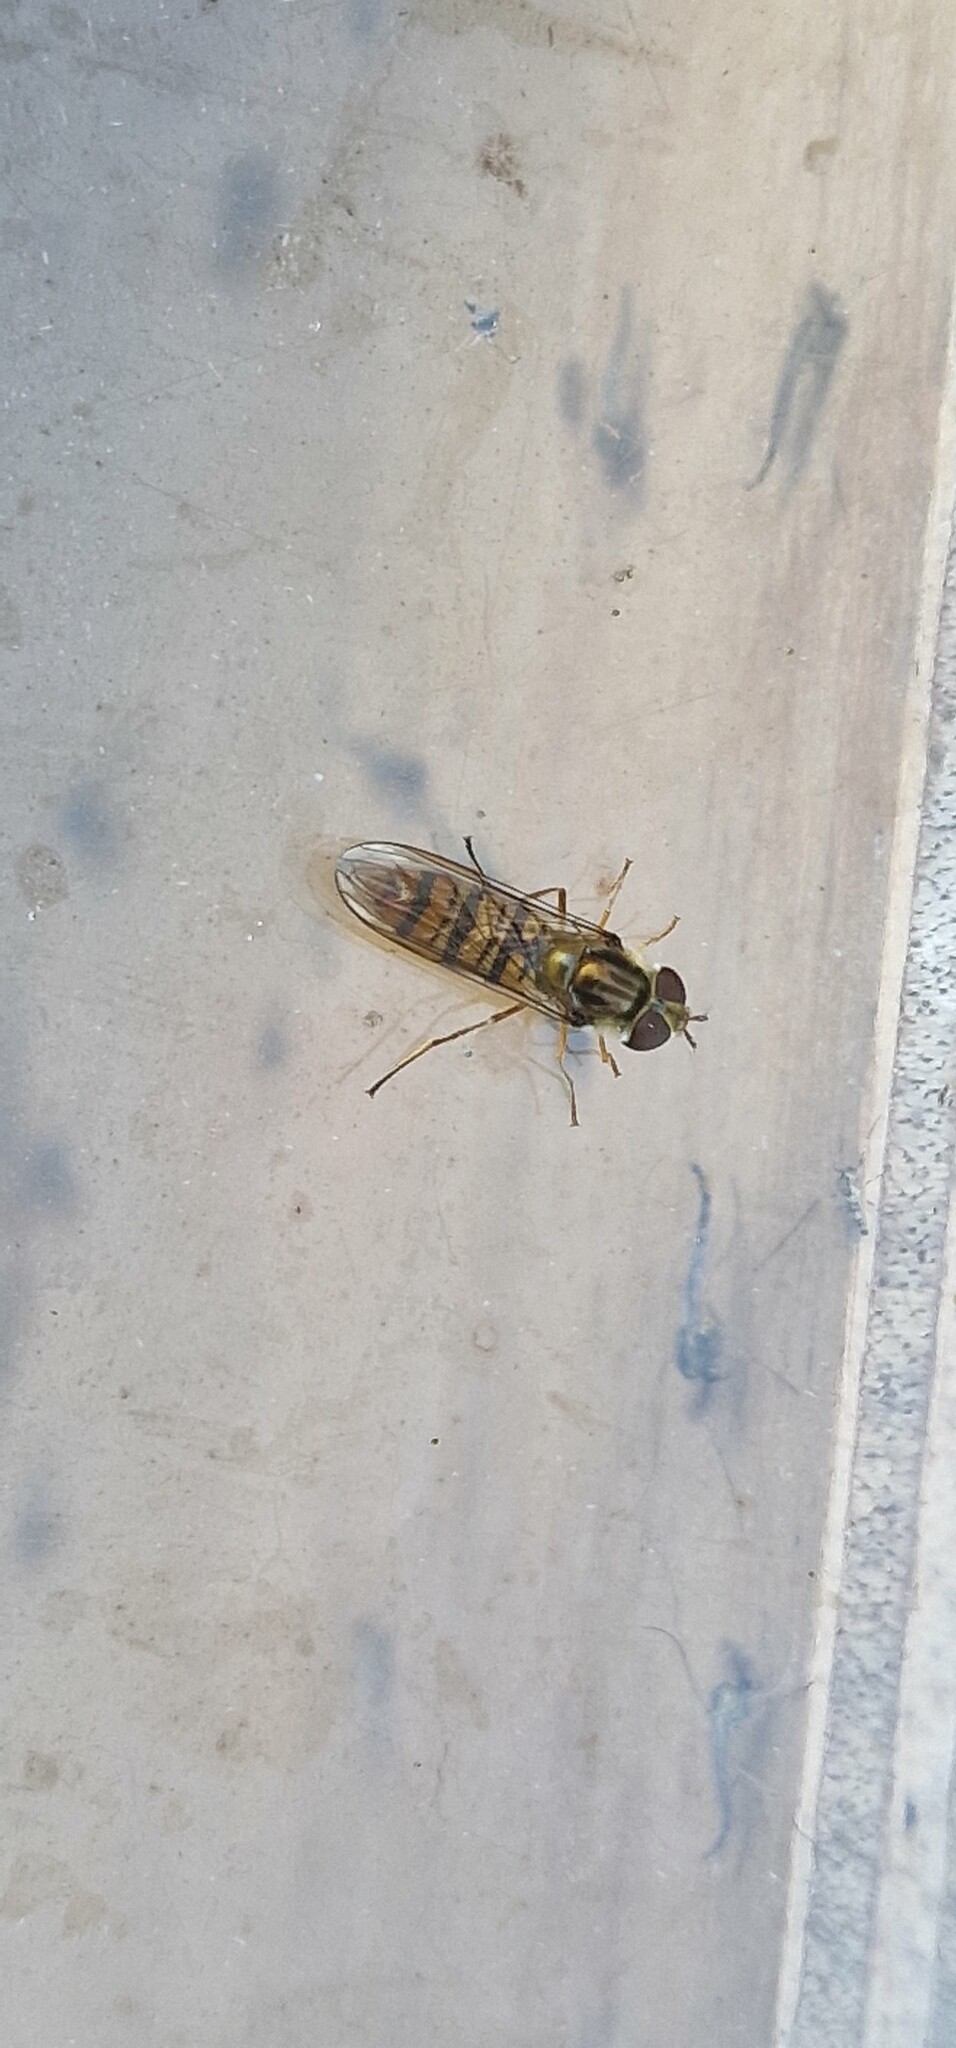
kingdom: Animalia
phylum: Arthropoda
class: Insecta
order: Diptera
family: Syrphidae
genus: Episyrphus
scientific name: Episyrphus balteatus
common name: Marmalade hoverfly
